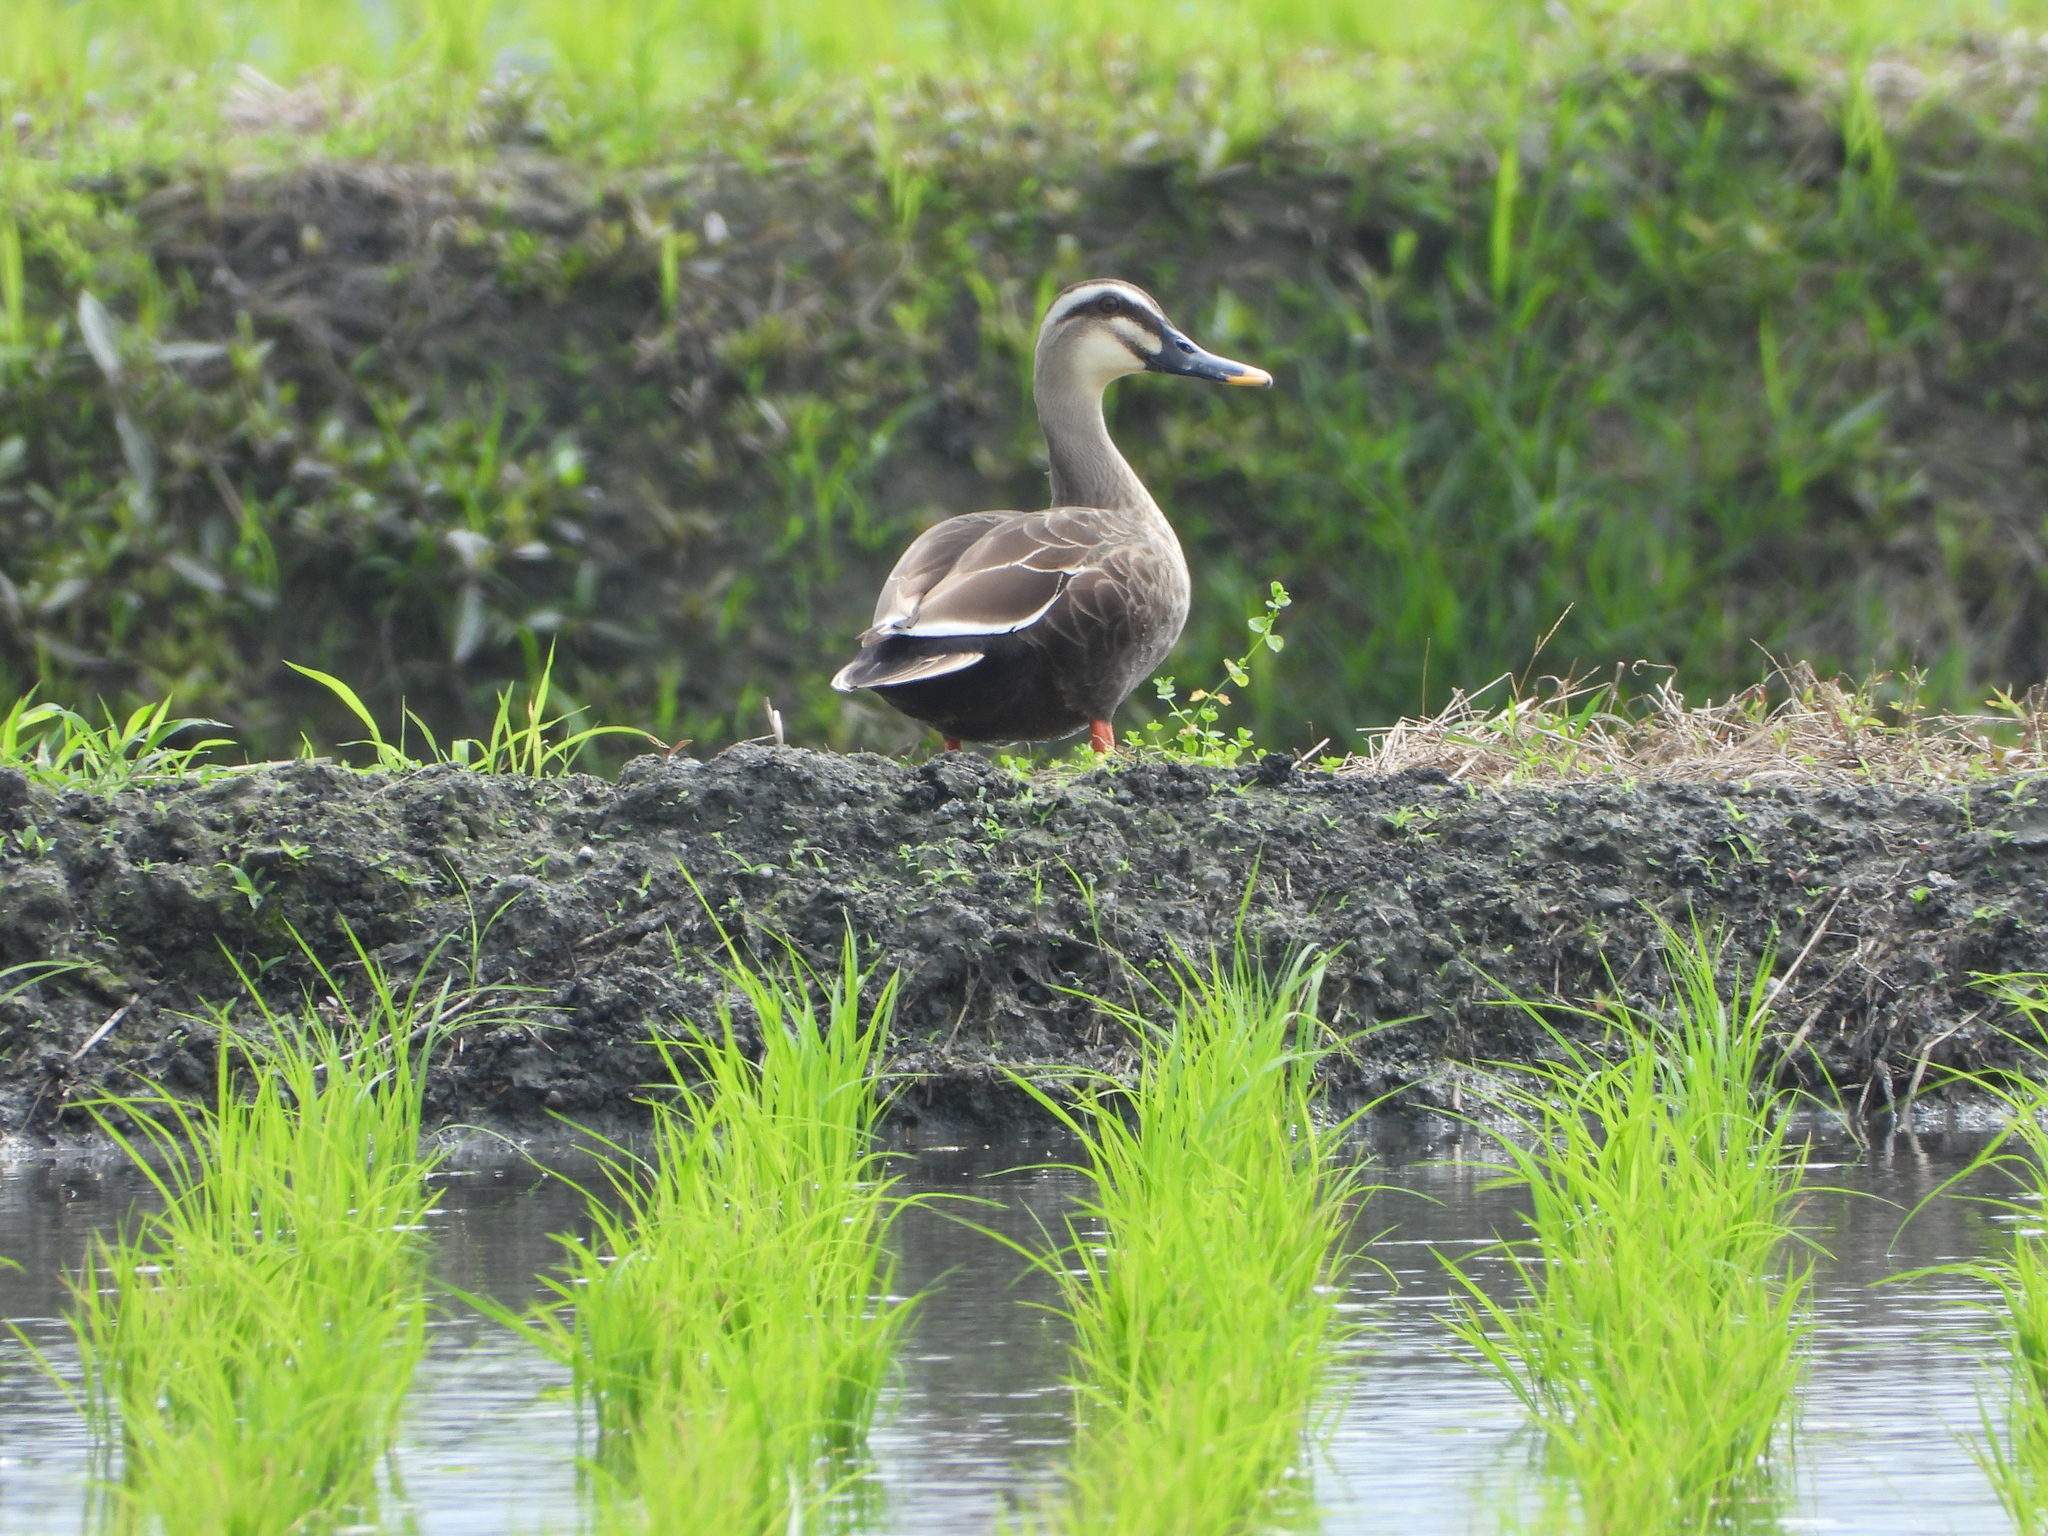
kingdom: Animalia
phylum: Chordata
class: Aves
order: Anseriformes
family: Anatidae
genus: Anas
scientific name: Anas zonorhyncha
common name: Eastern spot-billed duck
